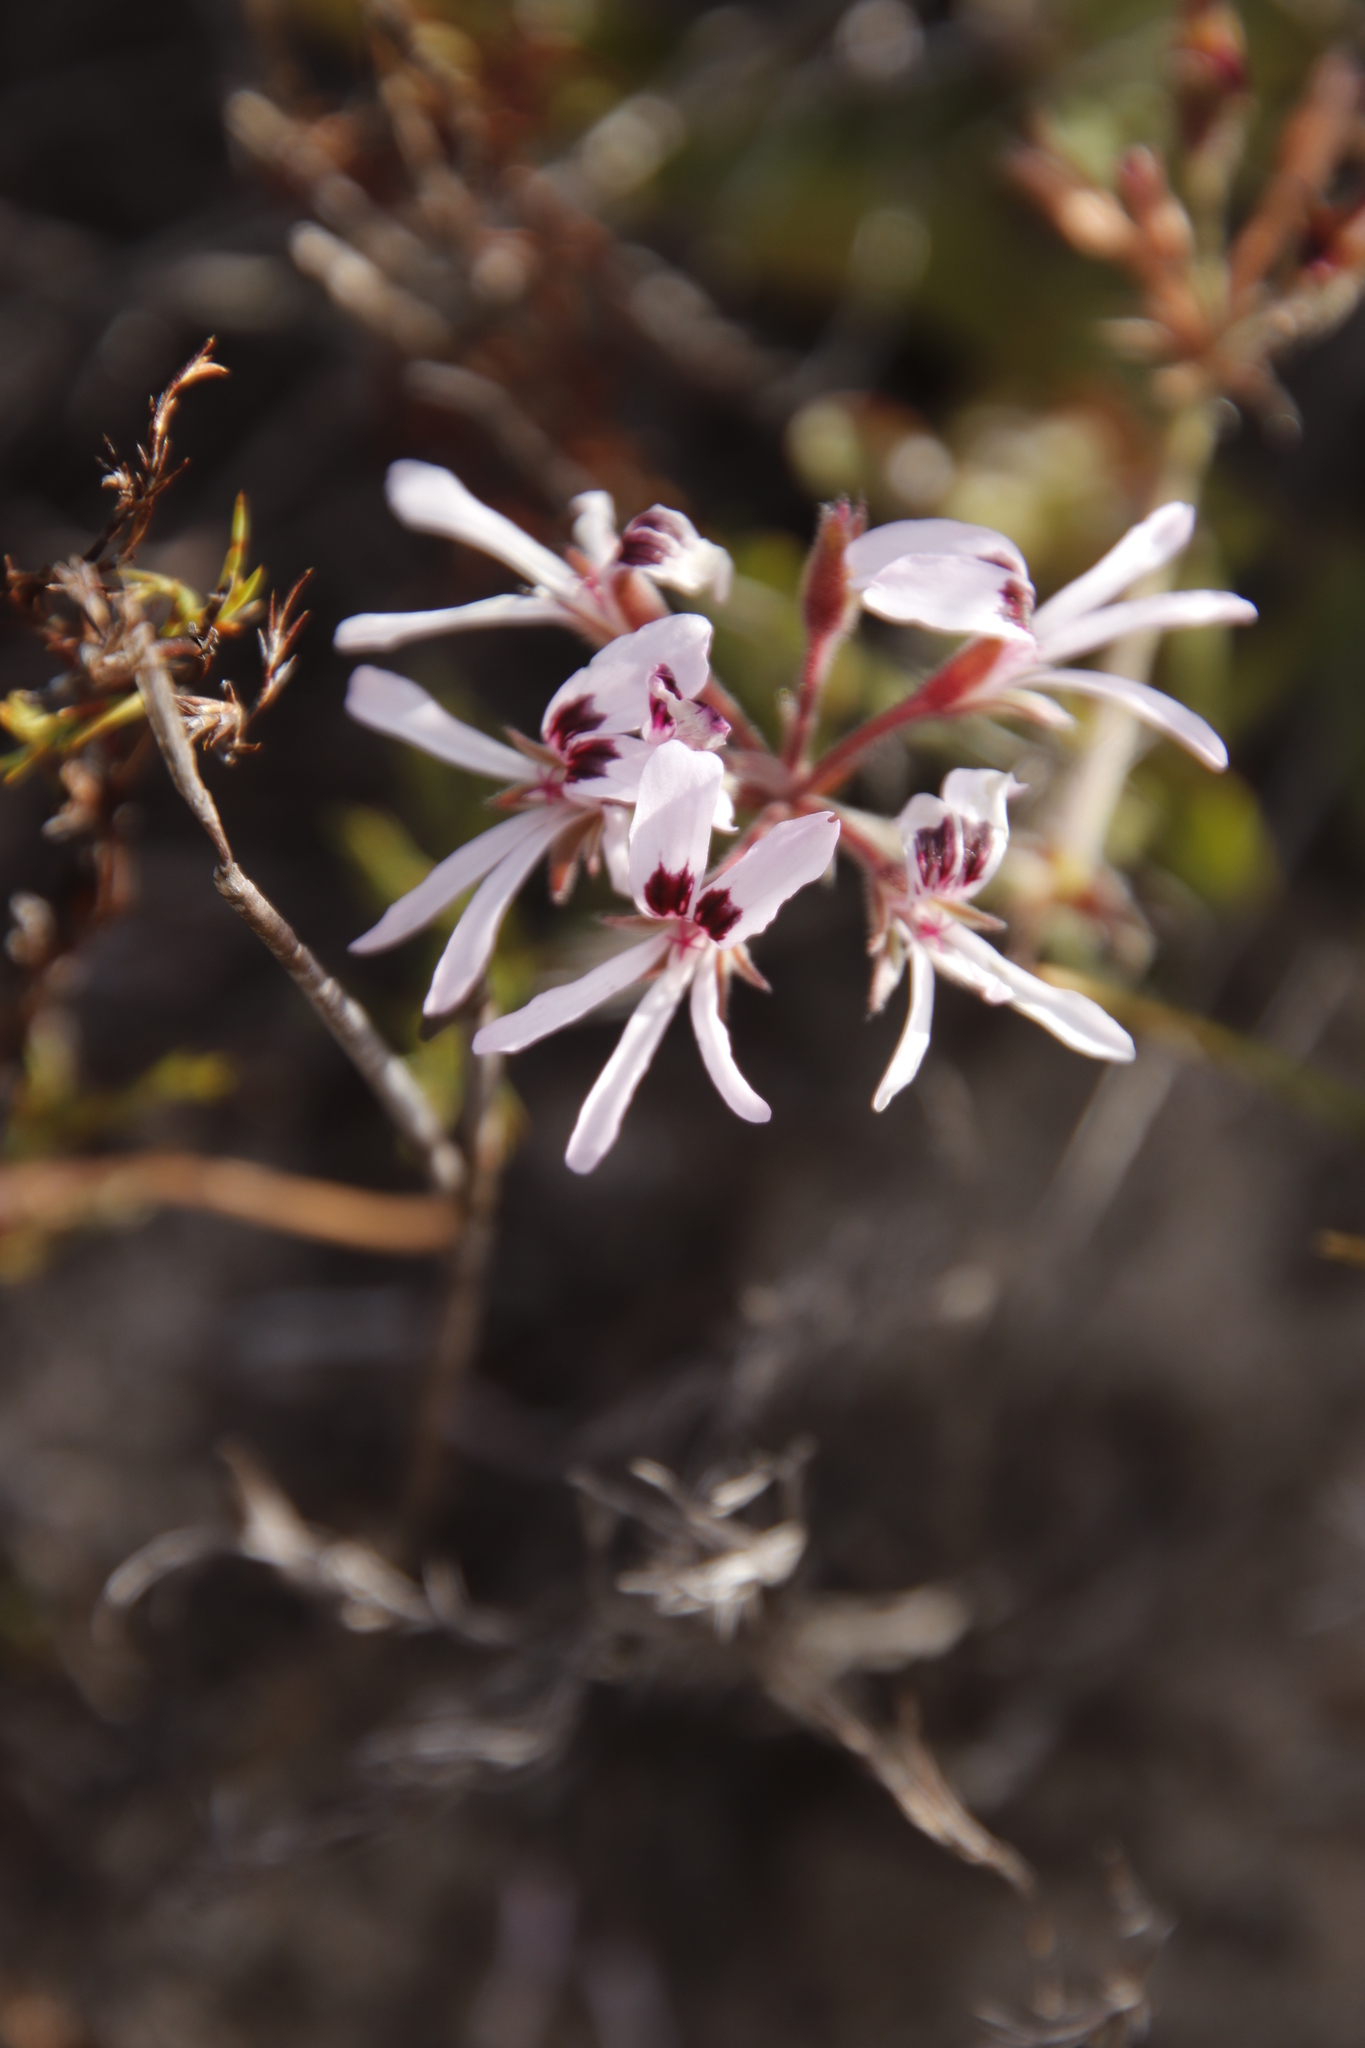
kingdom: Plantae
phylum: Tracheophyta
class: Magnoliopsida
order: Geraniales
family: Geraniaceae
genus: Pelargonium
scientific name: Pelargonium psammophilum
